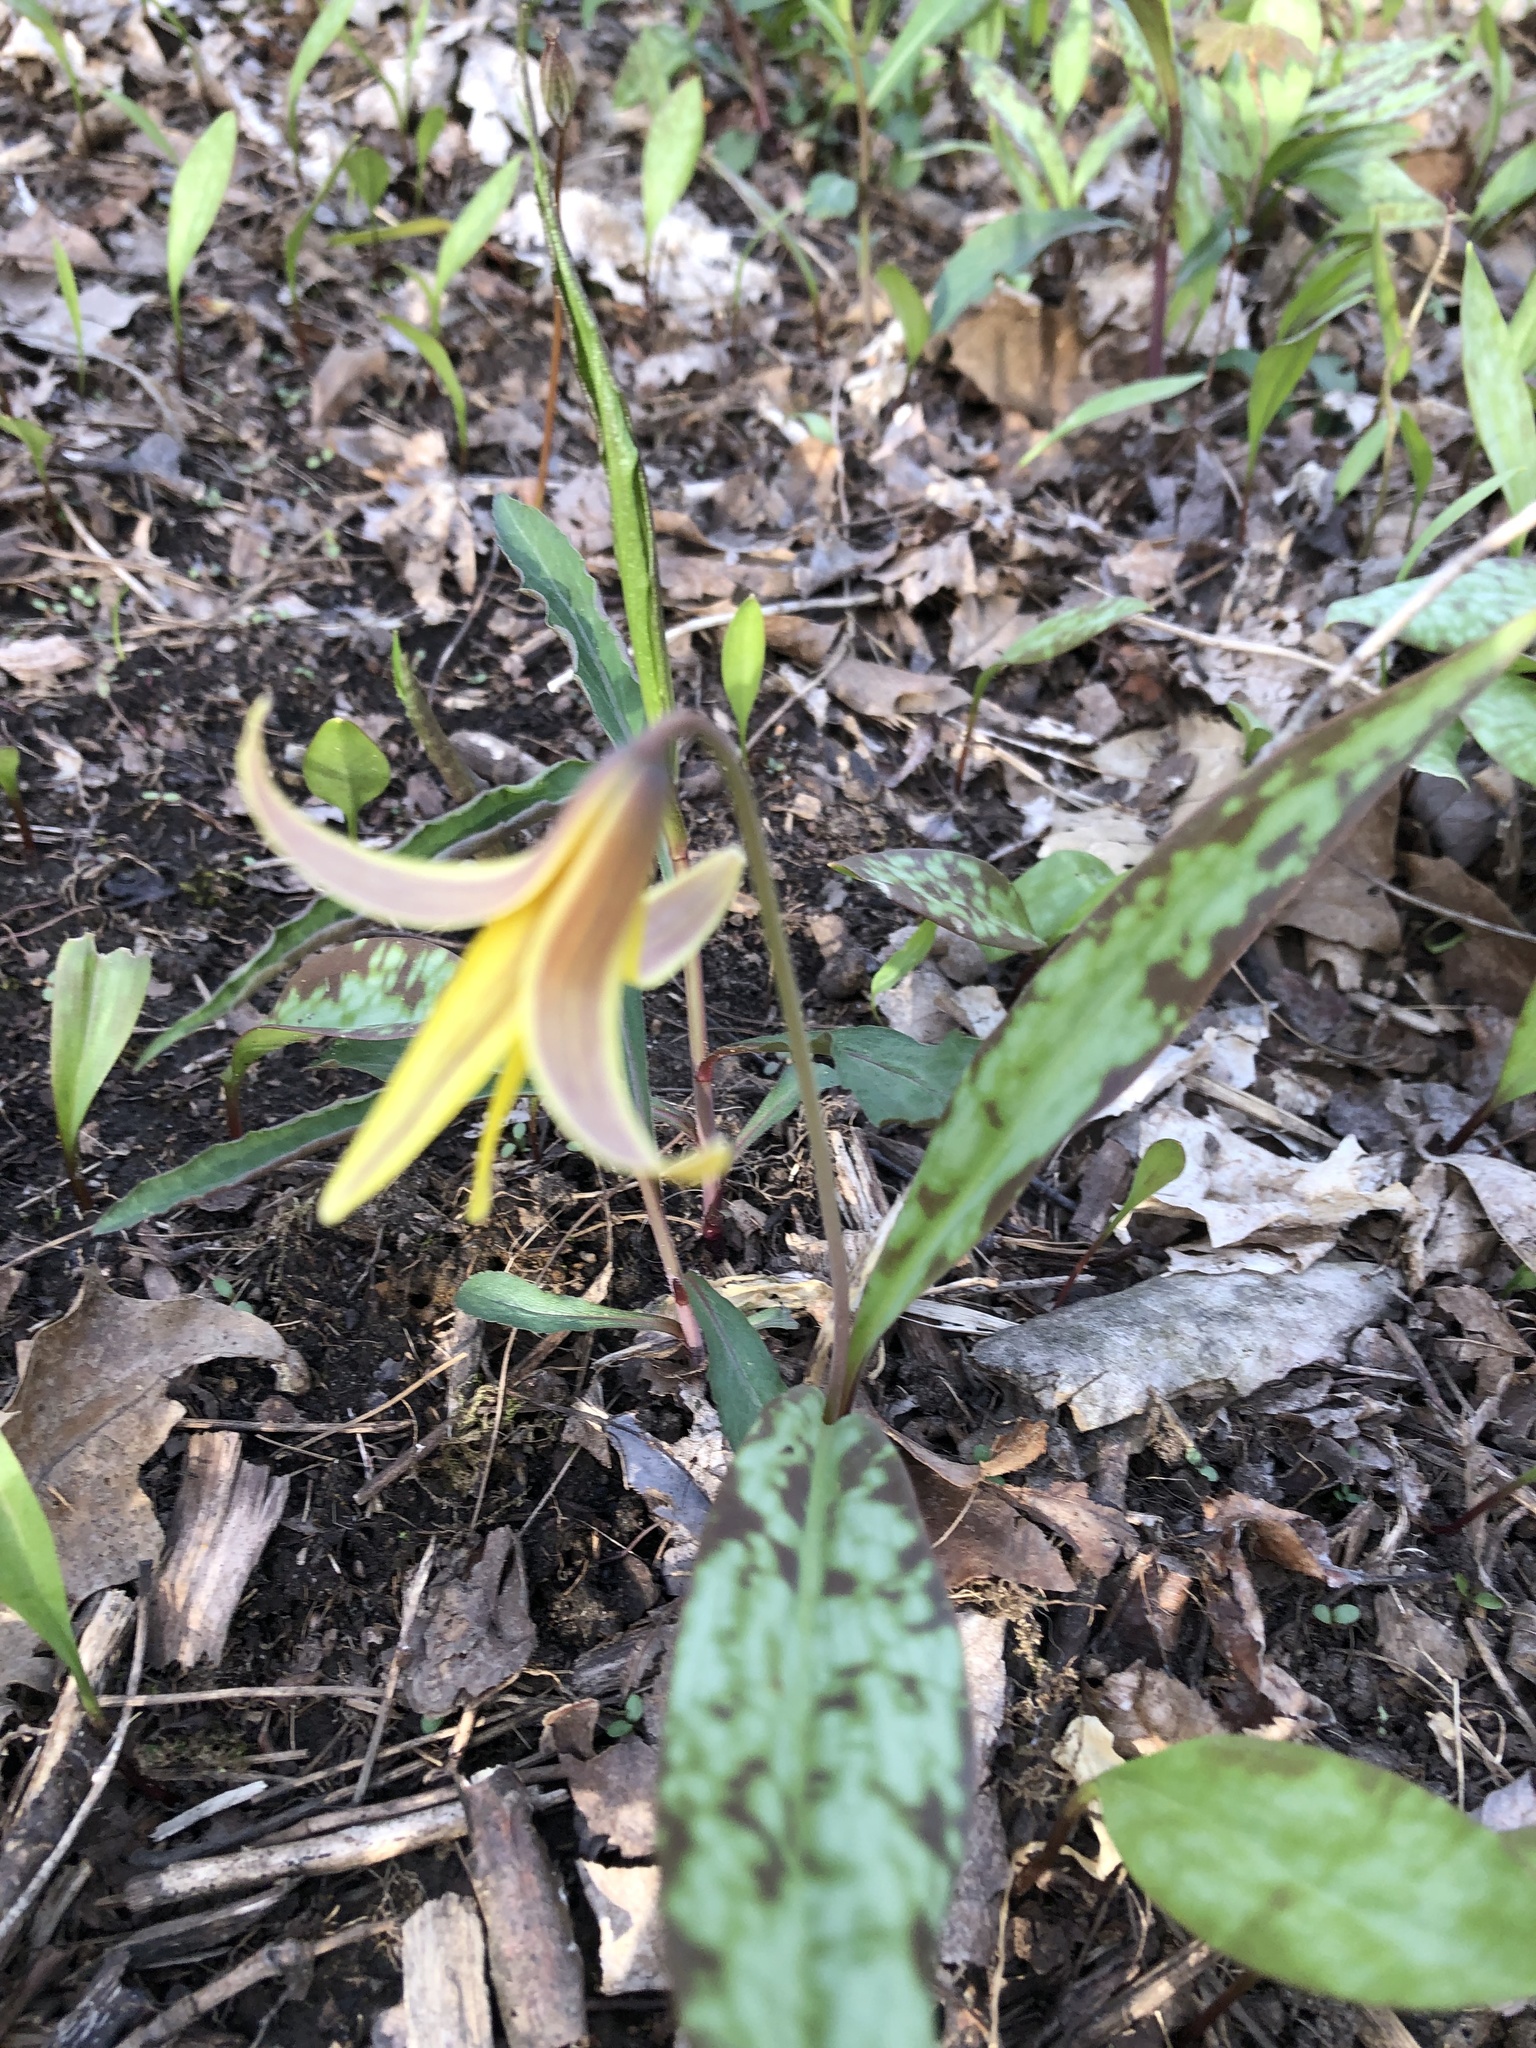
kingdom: Plantae
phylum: Tracheophyta
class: Liliopsida
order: Liliales
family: Liliaceae
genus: Erythronium
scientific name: Erythronium americanum
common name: Yellow adder's-tongue
